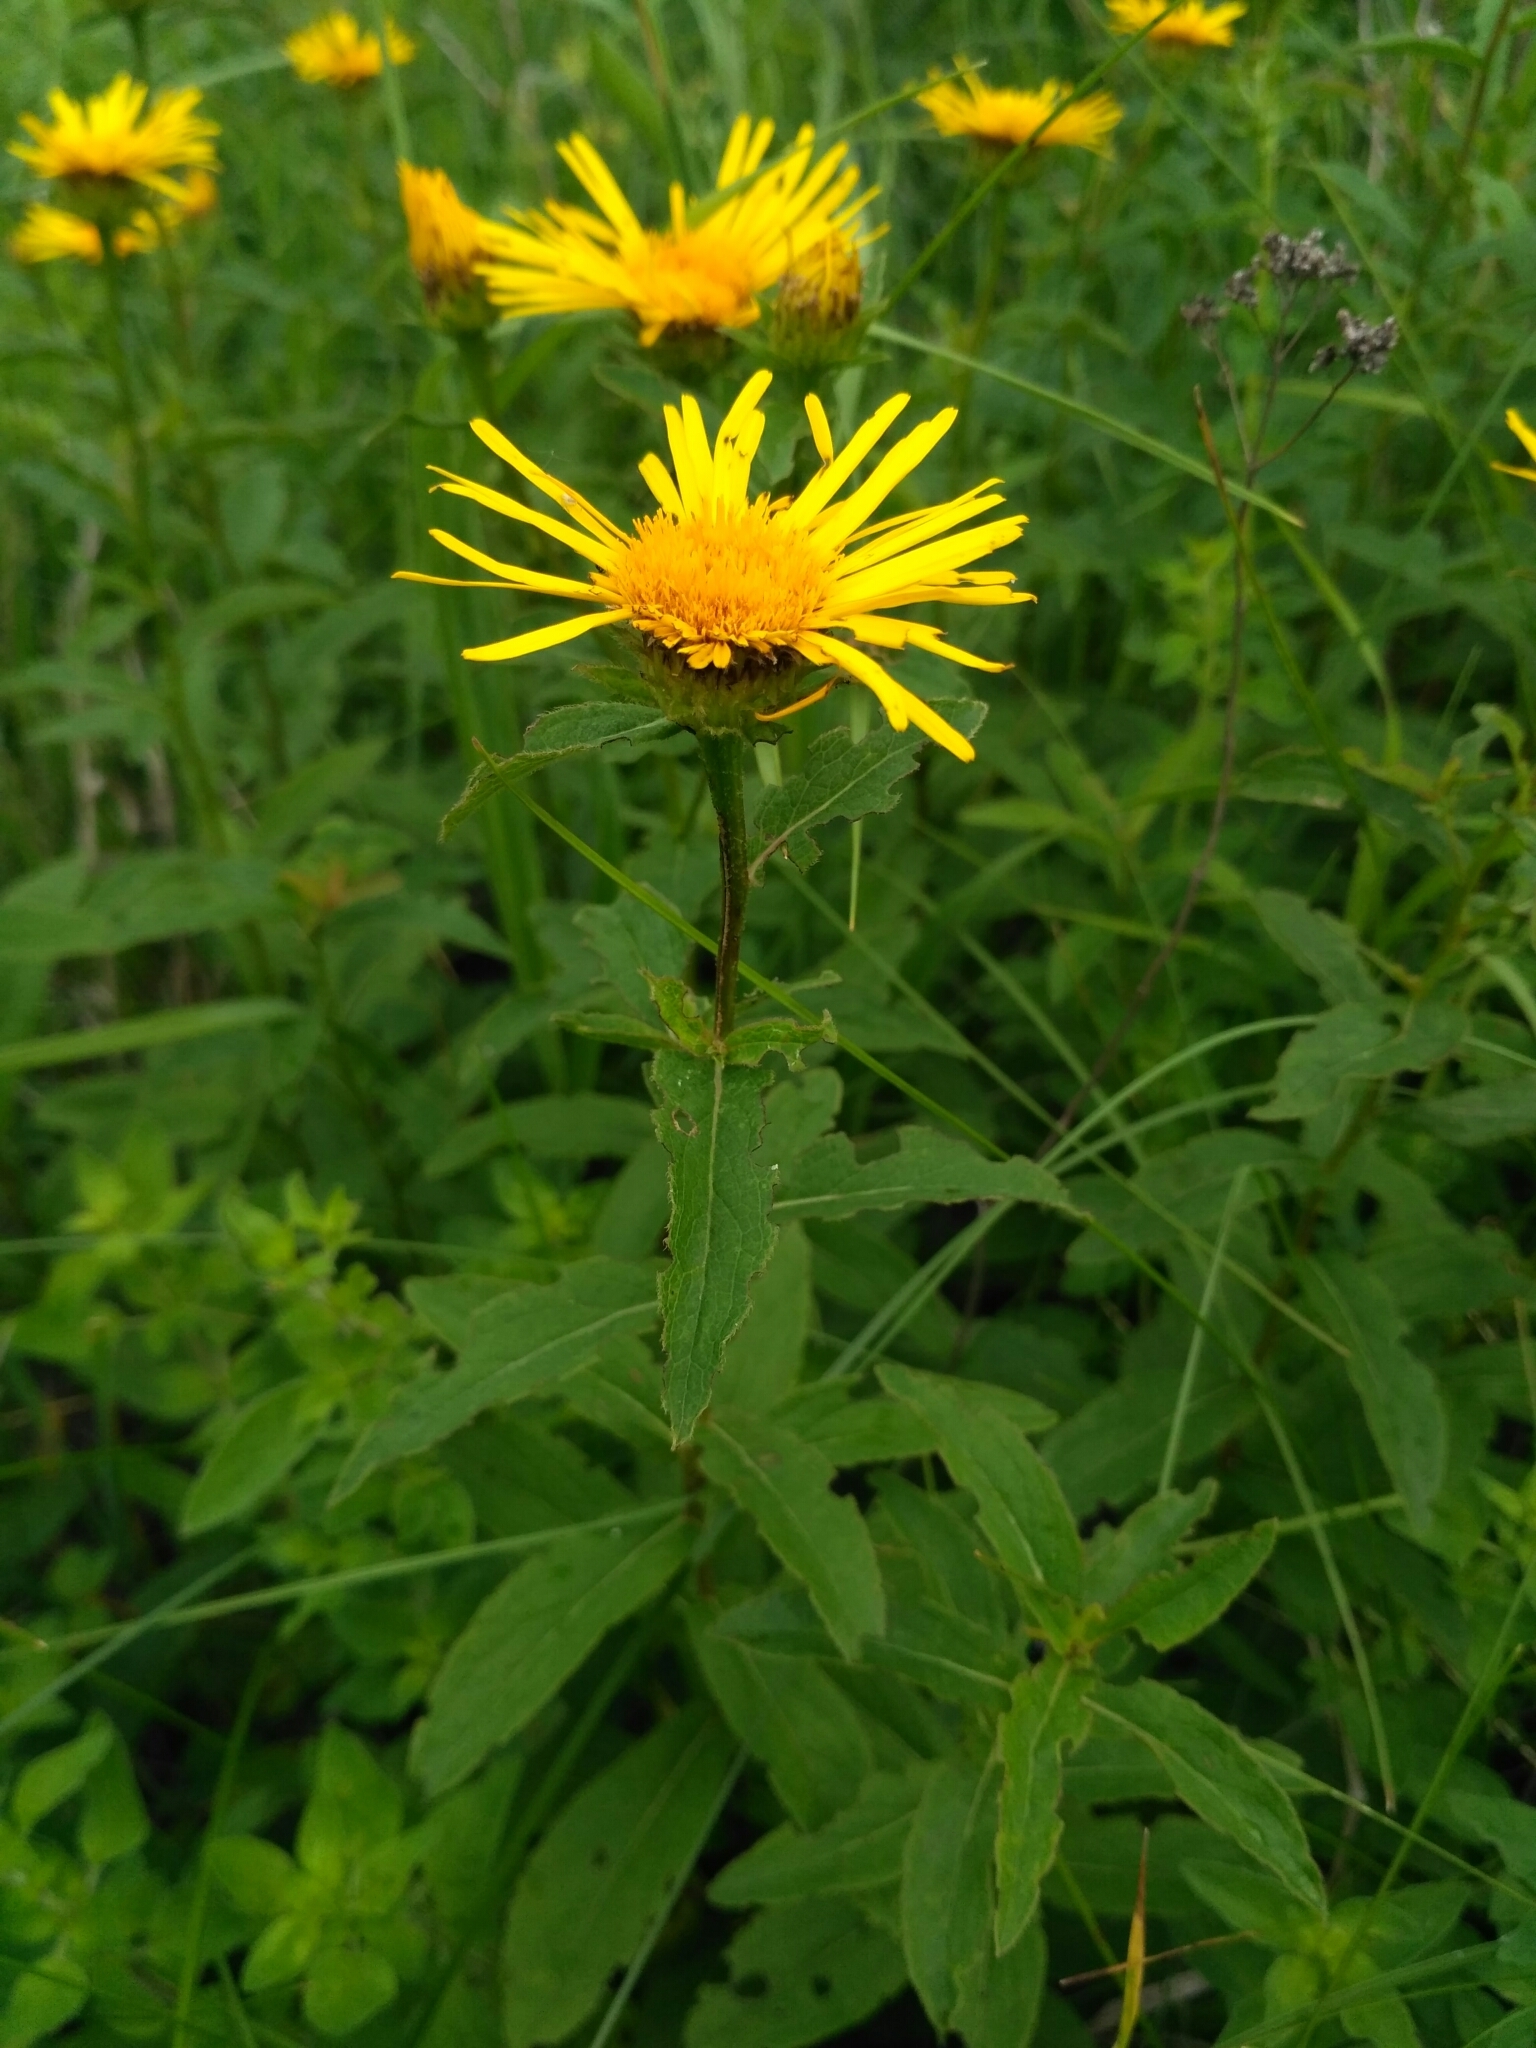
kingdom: Plantae
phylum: Tracheophyta
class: Magnoliopsida
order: Asterales
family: Asteraceae
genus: Pentanema
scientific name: Pentanema salicinum
